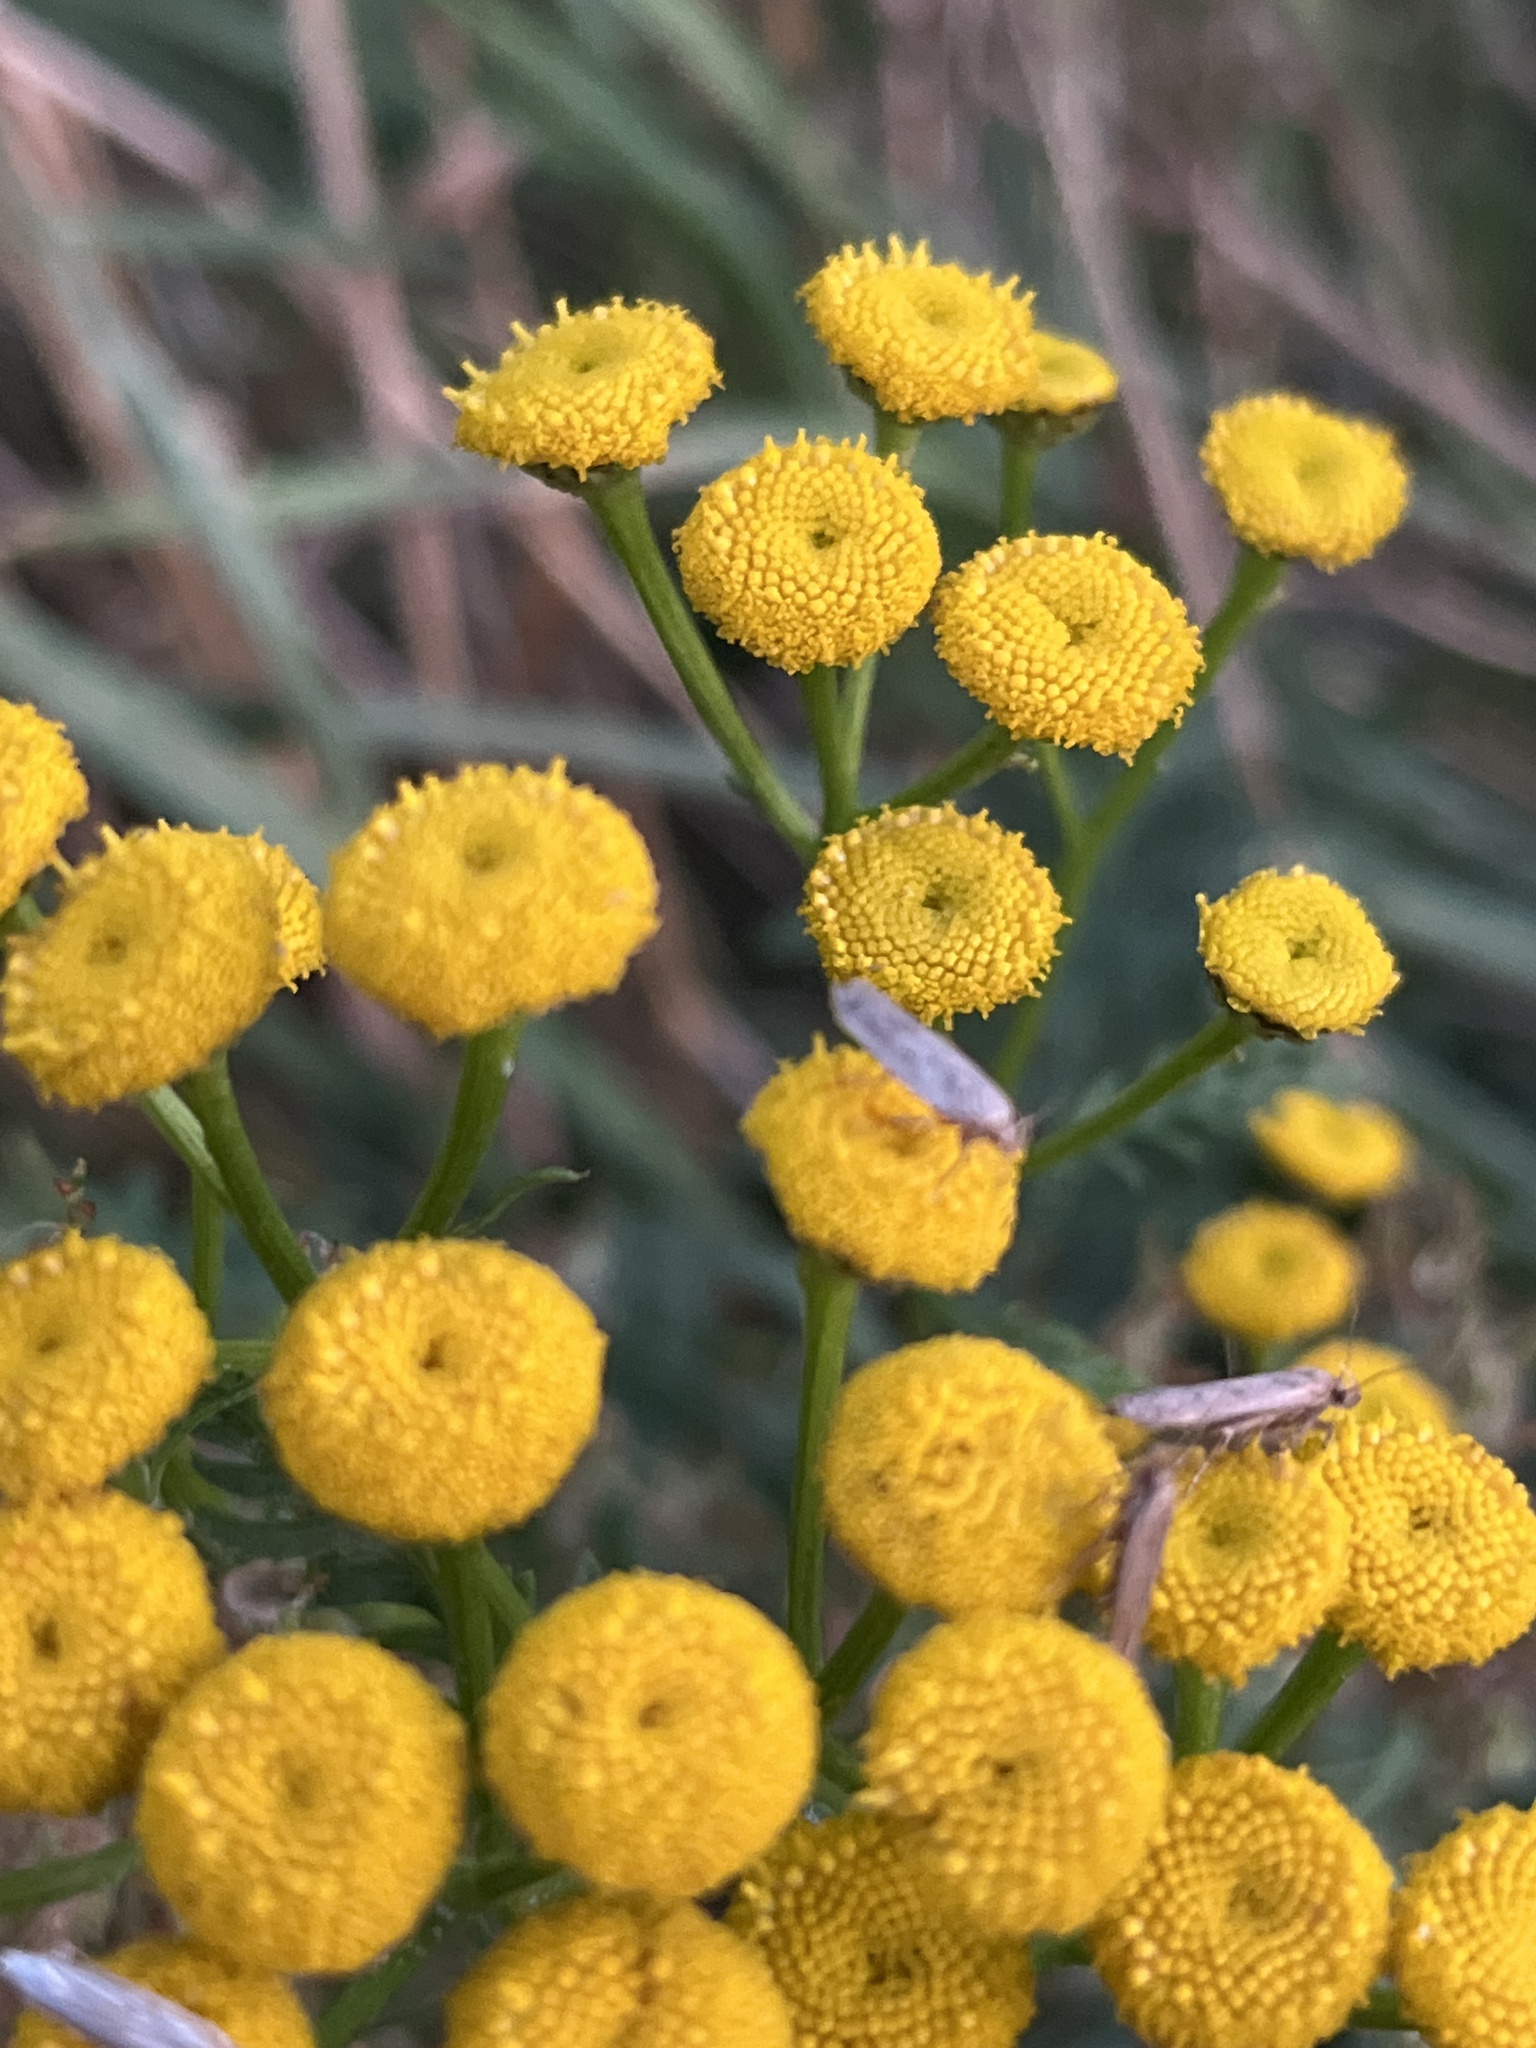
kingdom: Plantae
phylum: Tracheophyta
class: Magnoliopsida
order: Asterales
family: Asteraceae
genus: Tanacetum
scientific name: Tanacetum vulgare
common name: Common tansy
